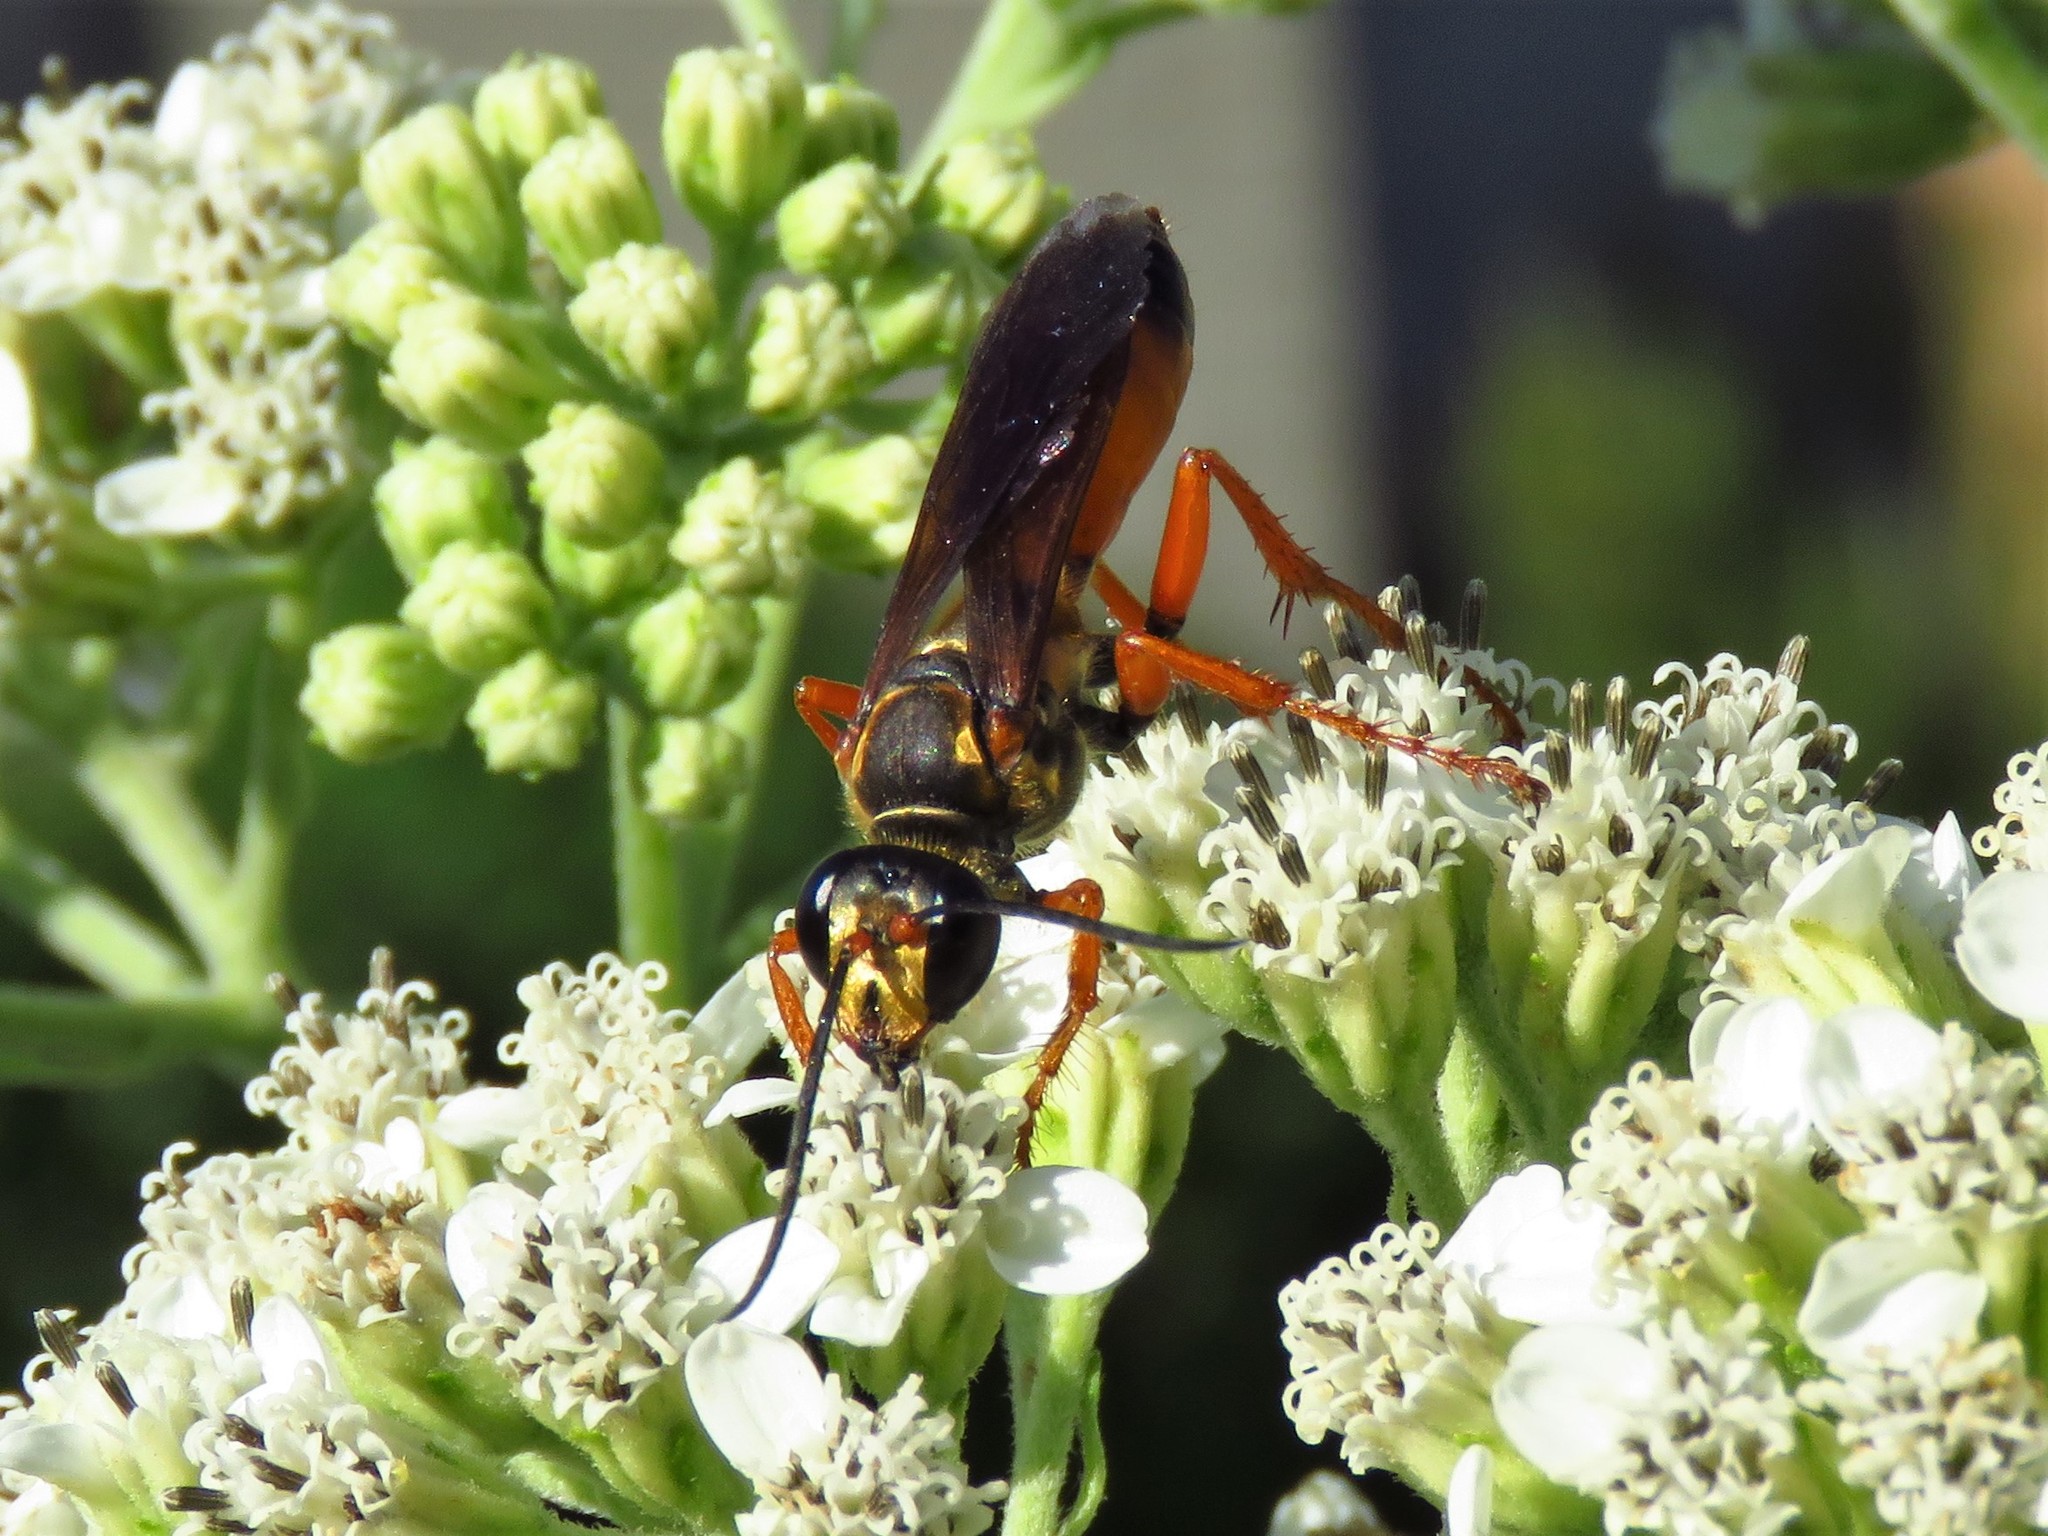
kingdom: Animalia
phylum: Arthropoda
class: Insecta
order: Hymenoptera
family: Sphecidae
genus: Sphex
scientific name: Sphex ichneumoneus
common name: Great golden digger wasp
